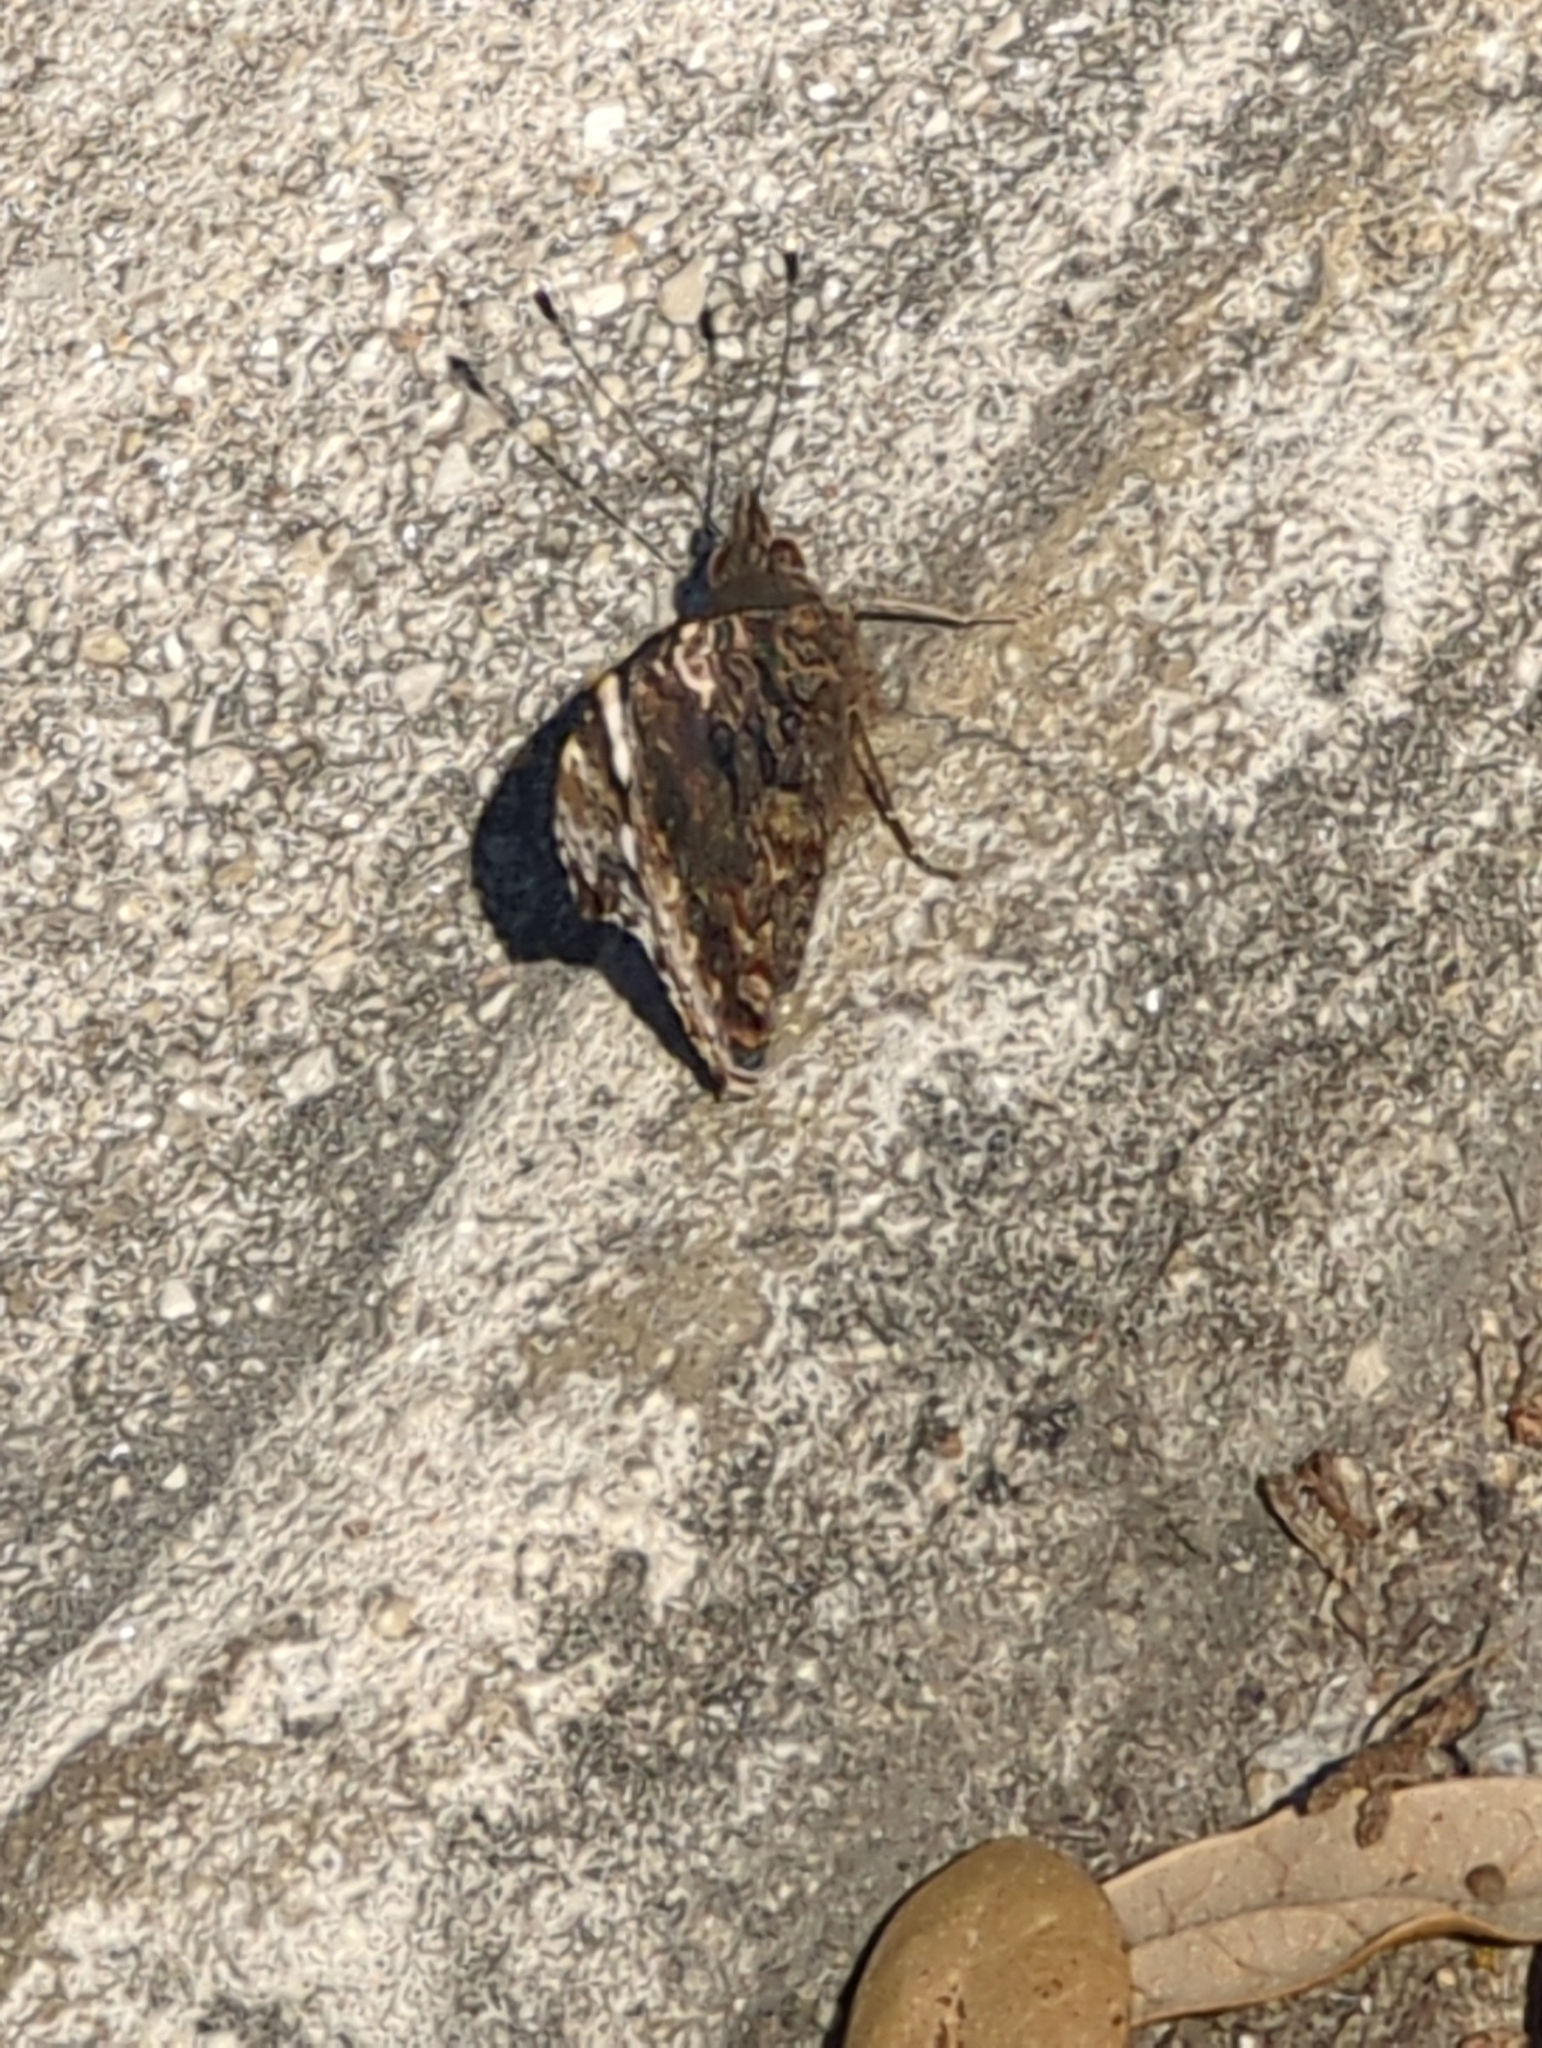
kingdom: Animalia
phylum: Arthropoda
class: Insecta
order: Lepidoptera
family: Nymphalidae
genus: Vanessa
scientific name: Vanessa atalanta
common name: Red admiral
